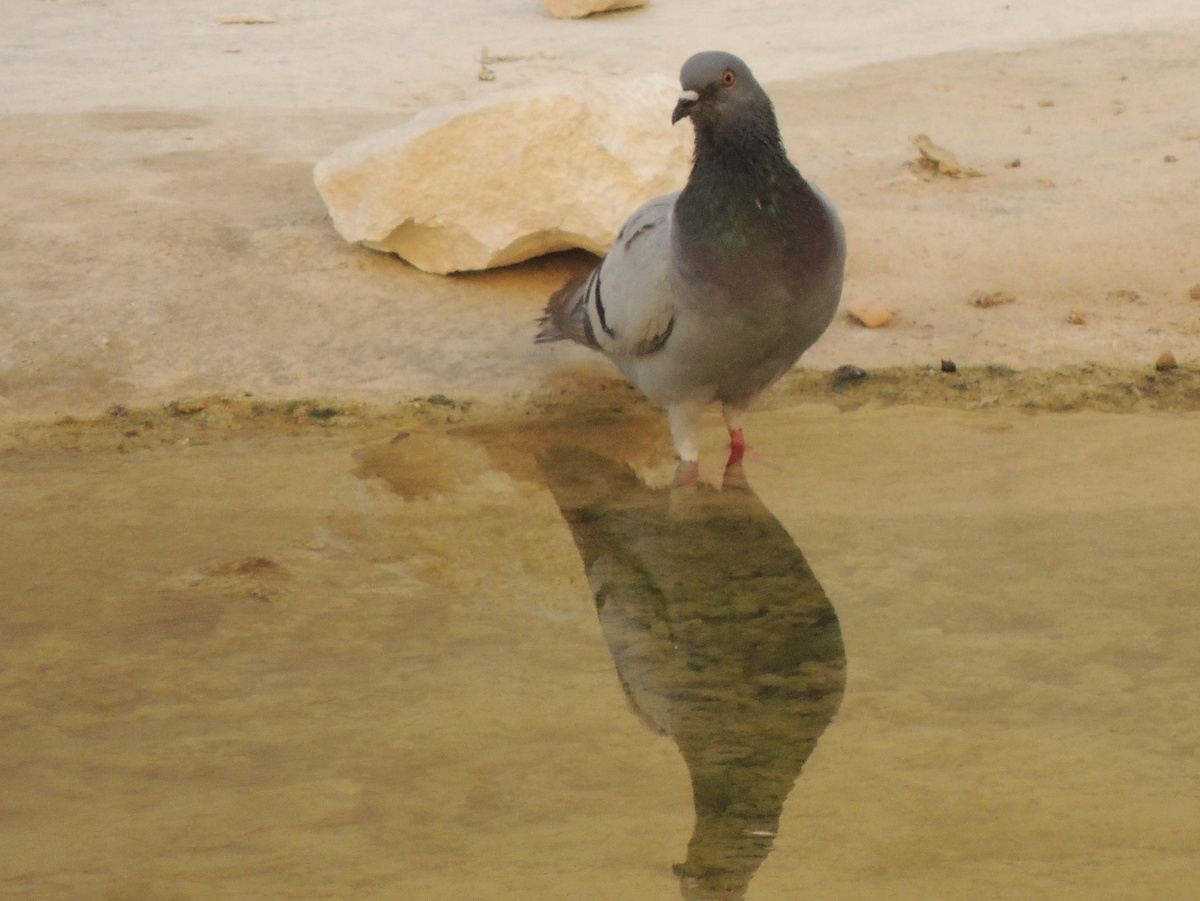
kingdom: Animalia
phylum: Chordata
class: Aves
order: Columbiformes
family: Columbidae
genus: Columba
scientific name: Columba livia
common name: Rock pigeon
